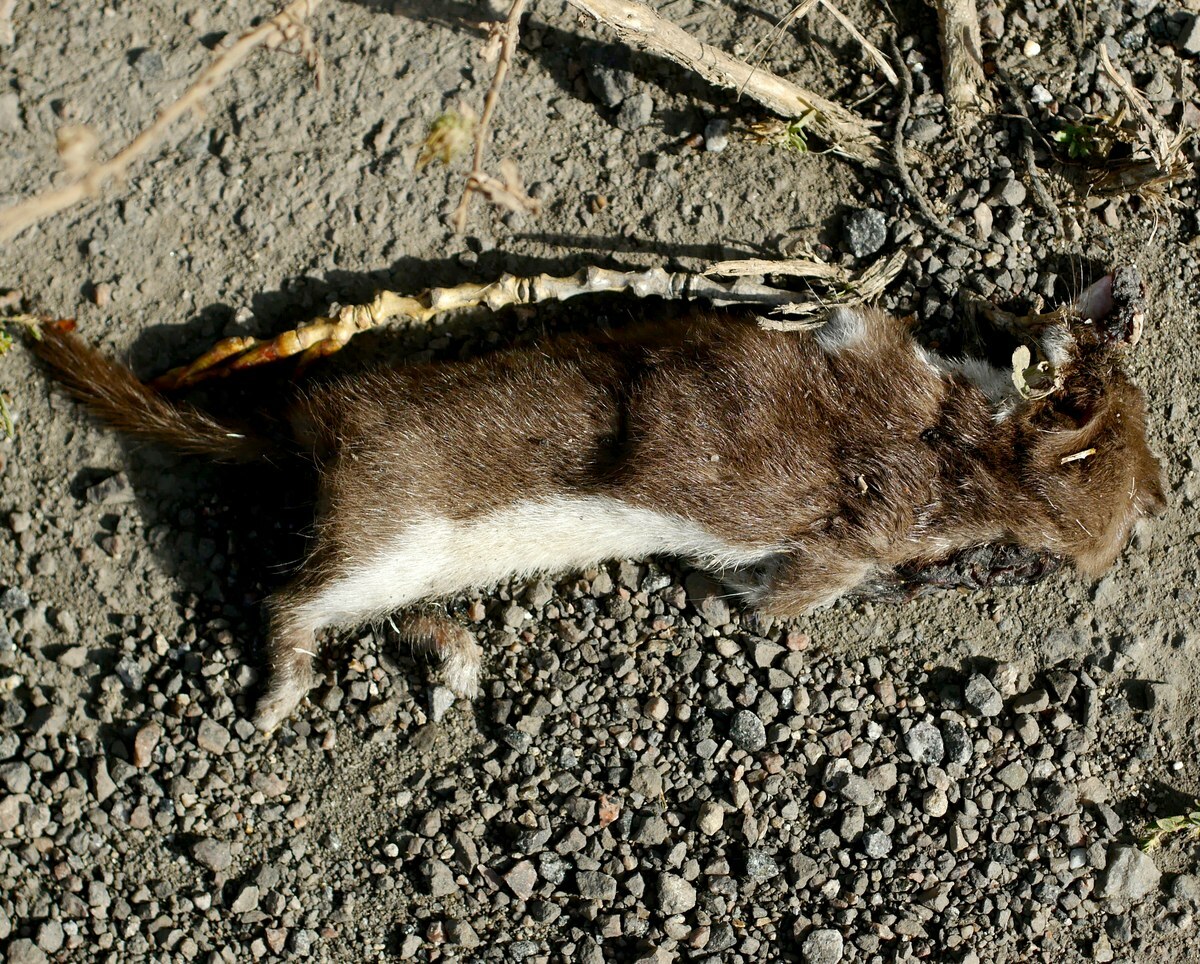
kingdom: Animalia
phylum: Chordata
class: Mammalia
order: Carnivora
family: Mustelidae
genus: Mustela
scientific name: Mustela nivalis
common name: Least weasel
